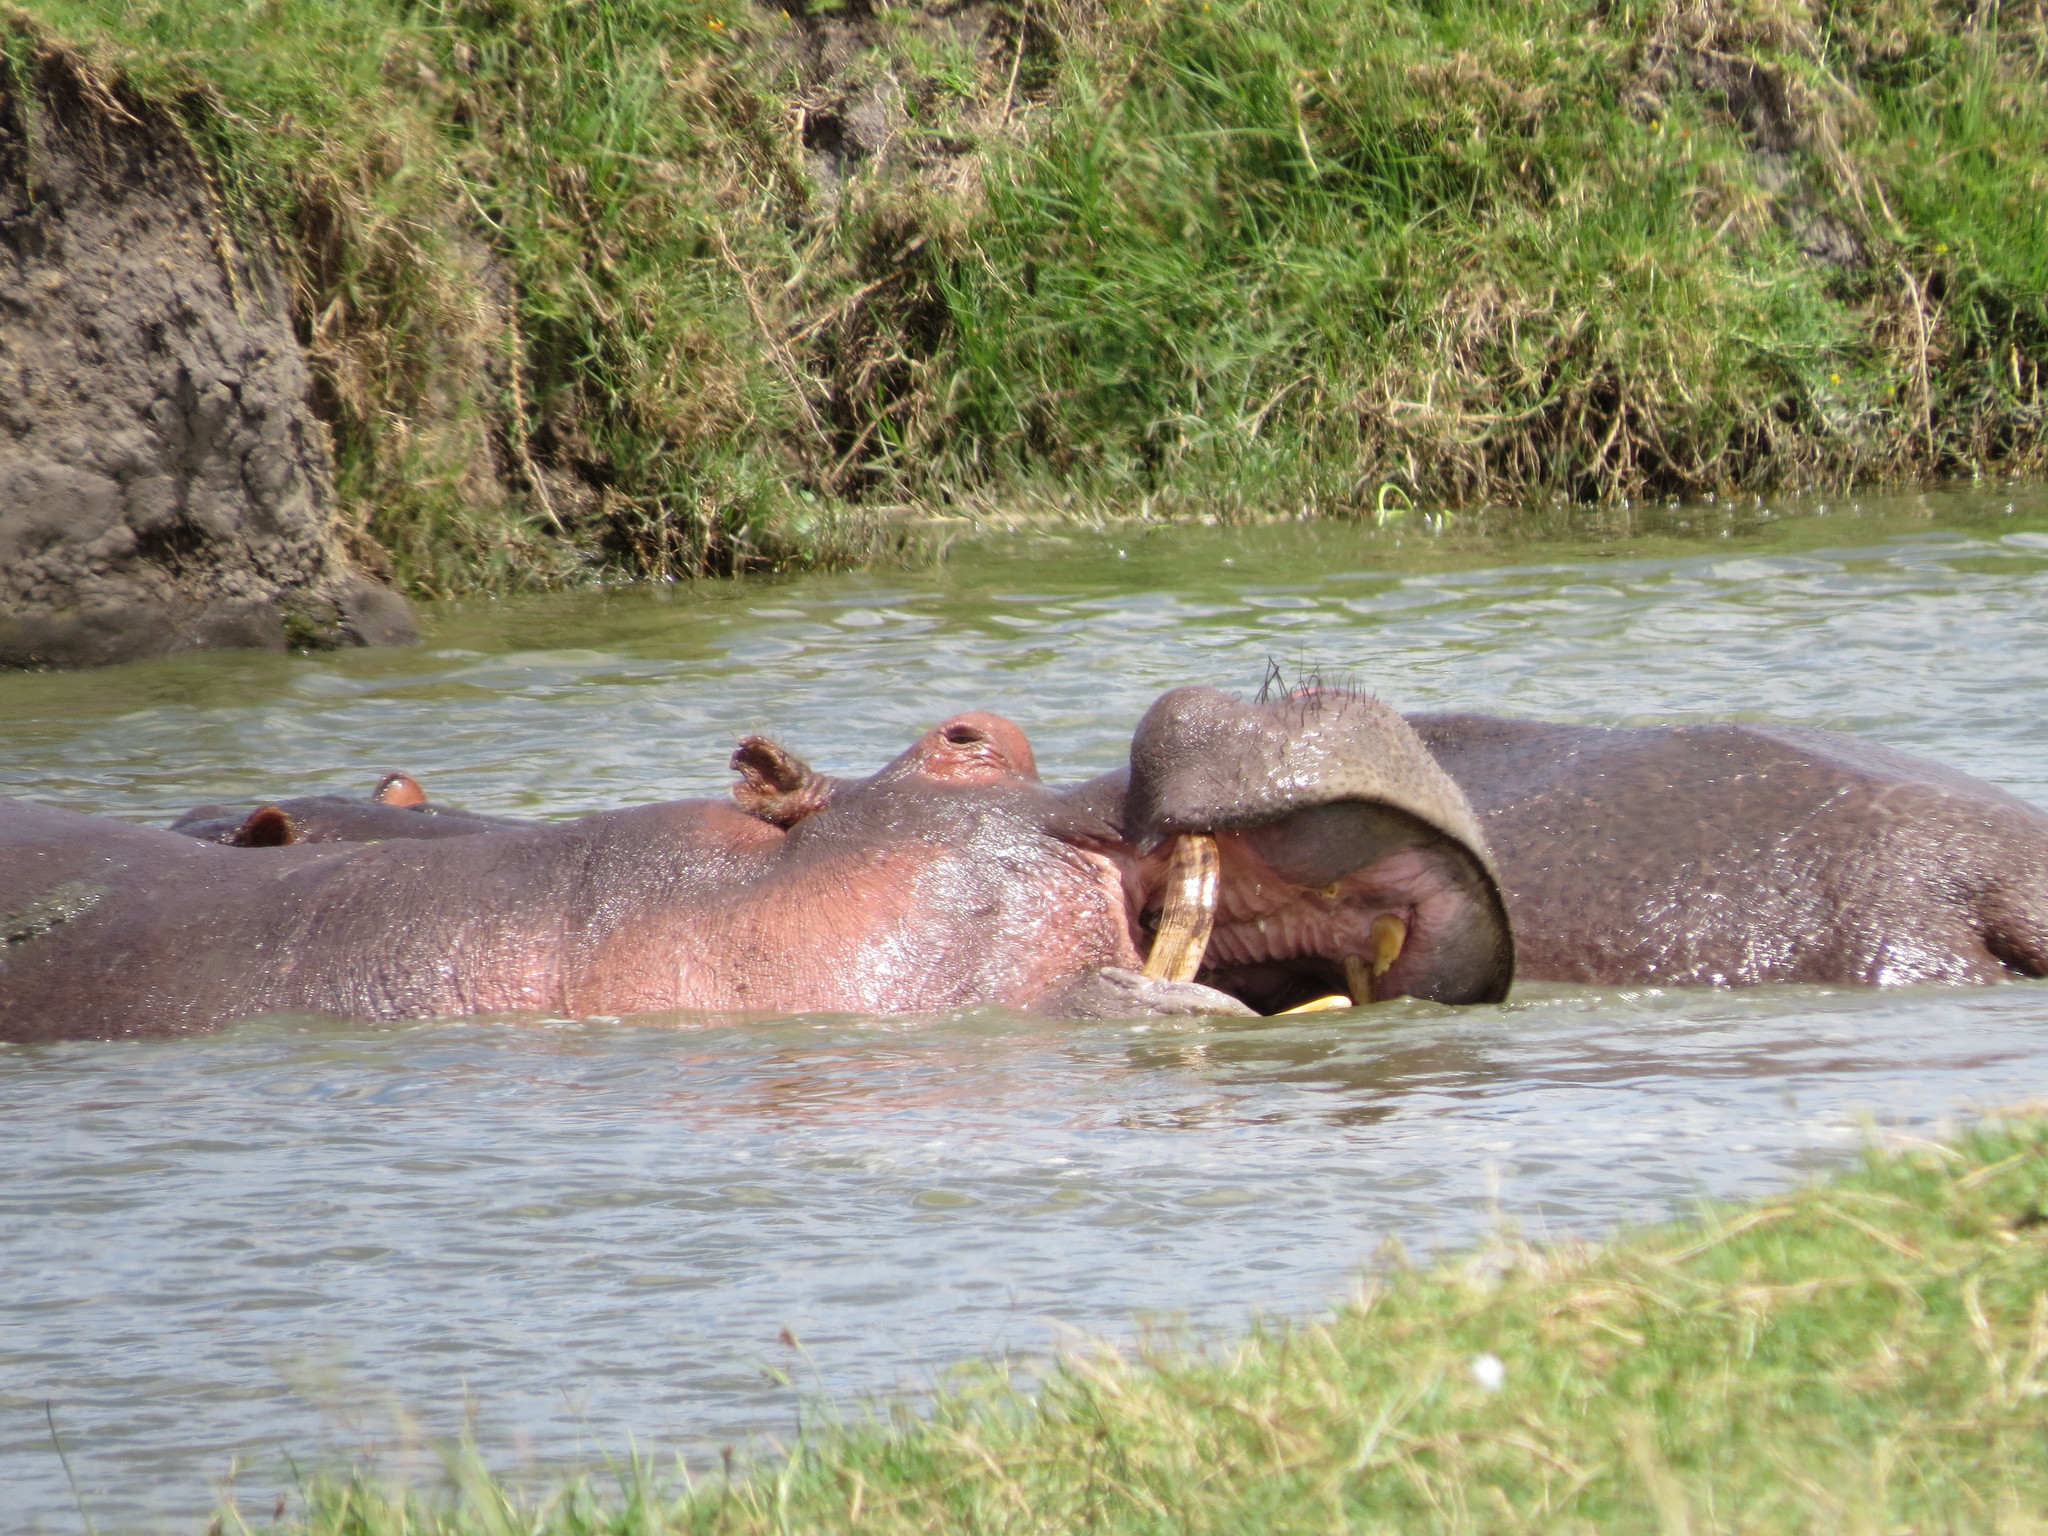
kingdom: Animalia
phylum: Chordata
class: Mammalia
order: Artiodactyla
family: Hippopotamidae
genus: Hippopotamus
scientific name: Hippopotamus amphibius
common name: Common hippopotamus
